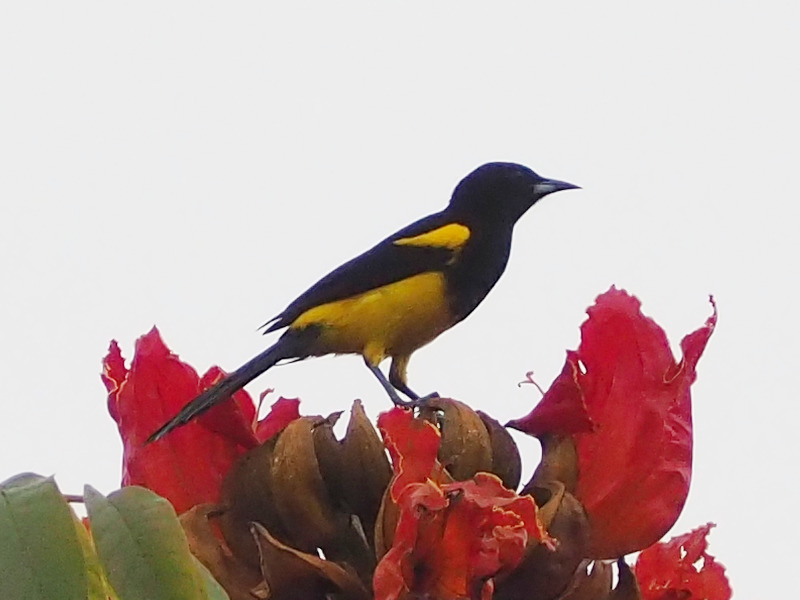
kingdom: Animalia
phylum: Chordata
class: Aves
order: Passeriformes
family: Icteridae
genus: Icterus
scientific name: Icterus prosthemelas
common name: Black-cowled oriole
